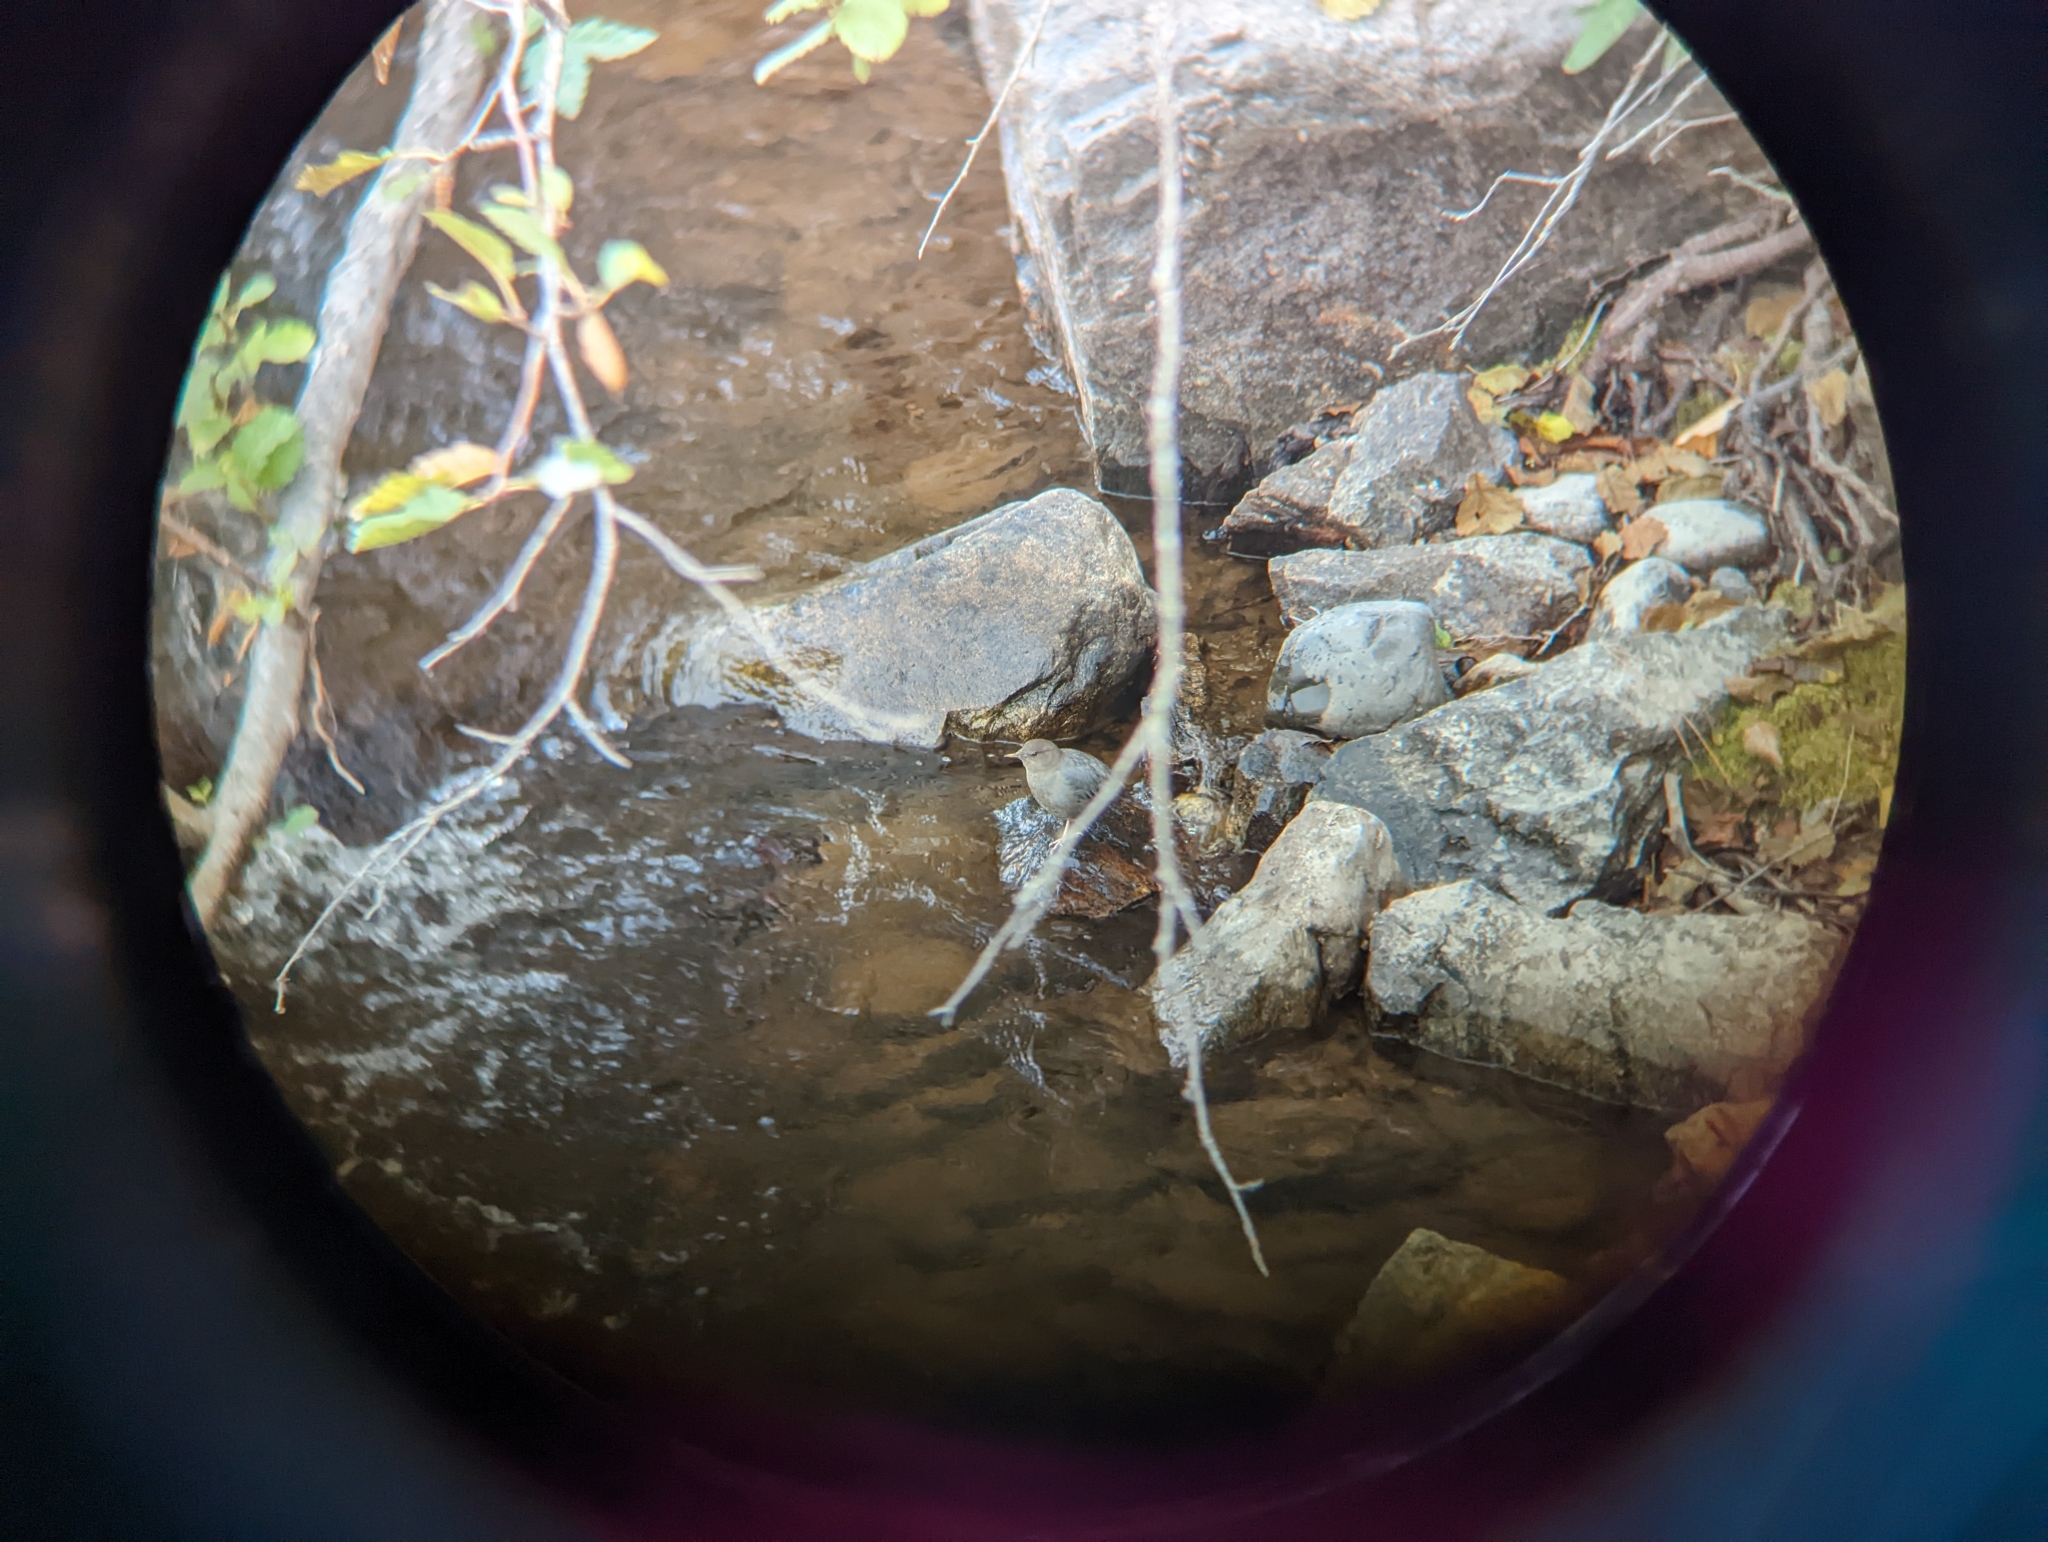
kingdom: Animalia
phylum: Chordata
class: Aves
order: Passeriformes
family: Cinclidae
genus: Cinclus
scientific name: Cinclus mexicanus
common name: American dipper
